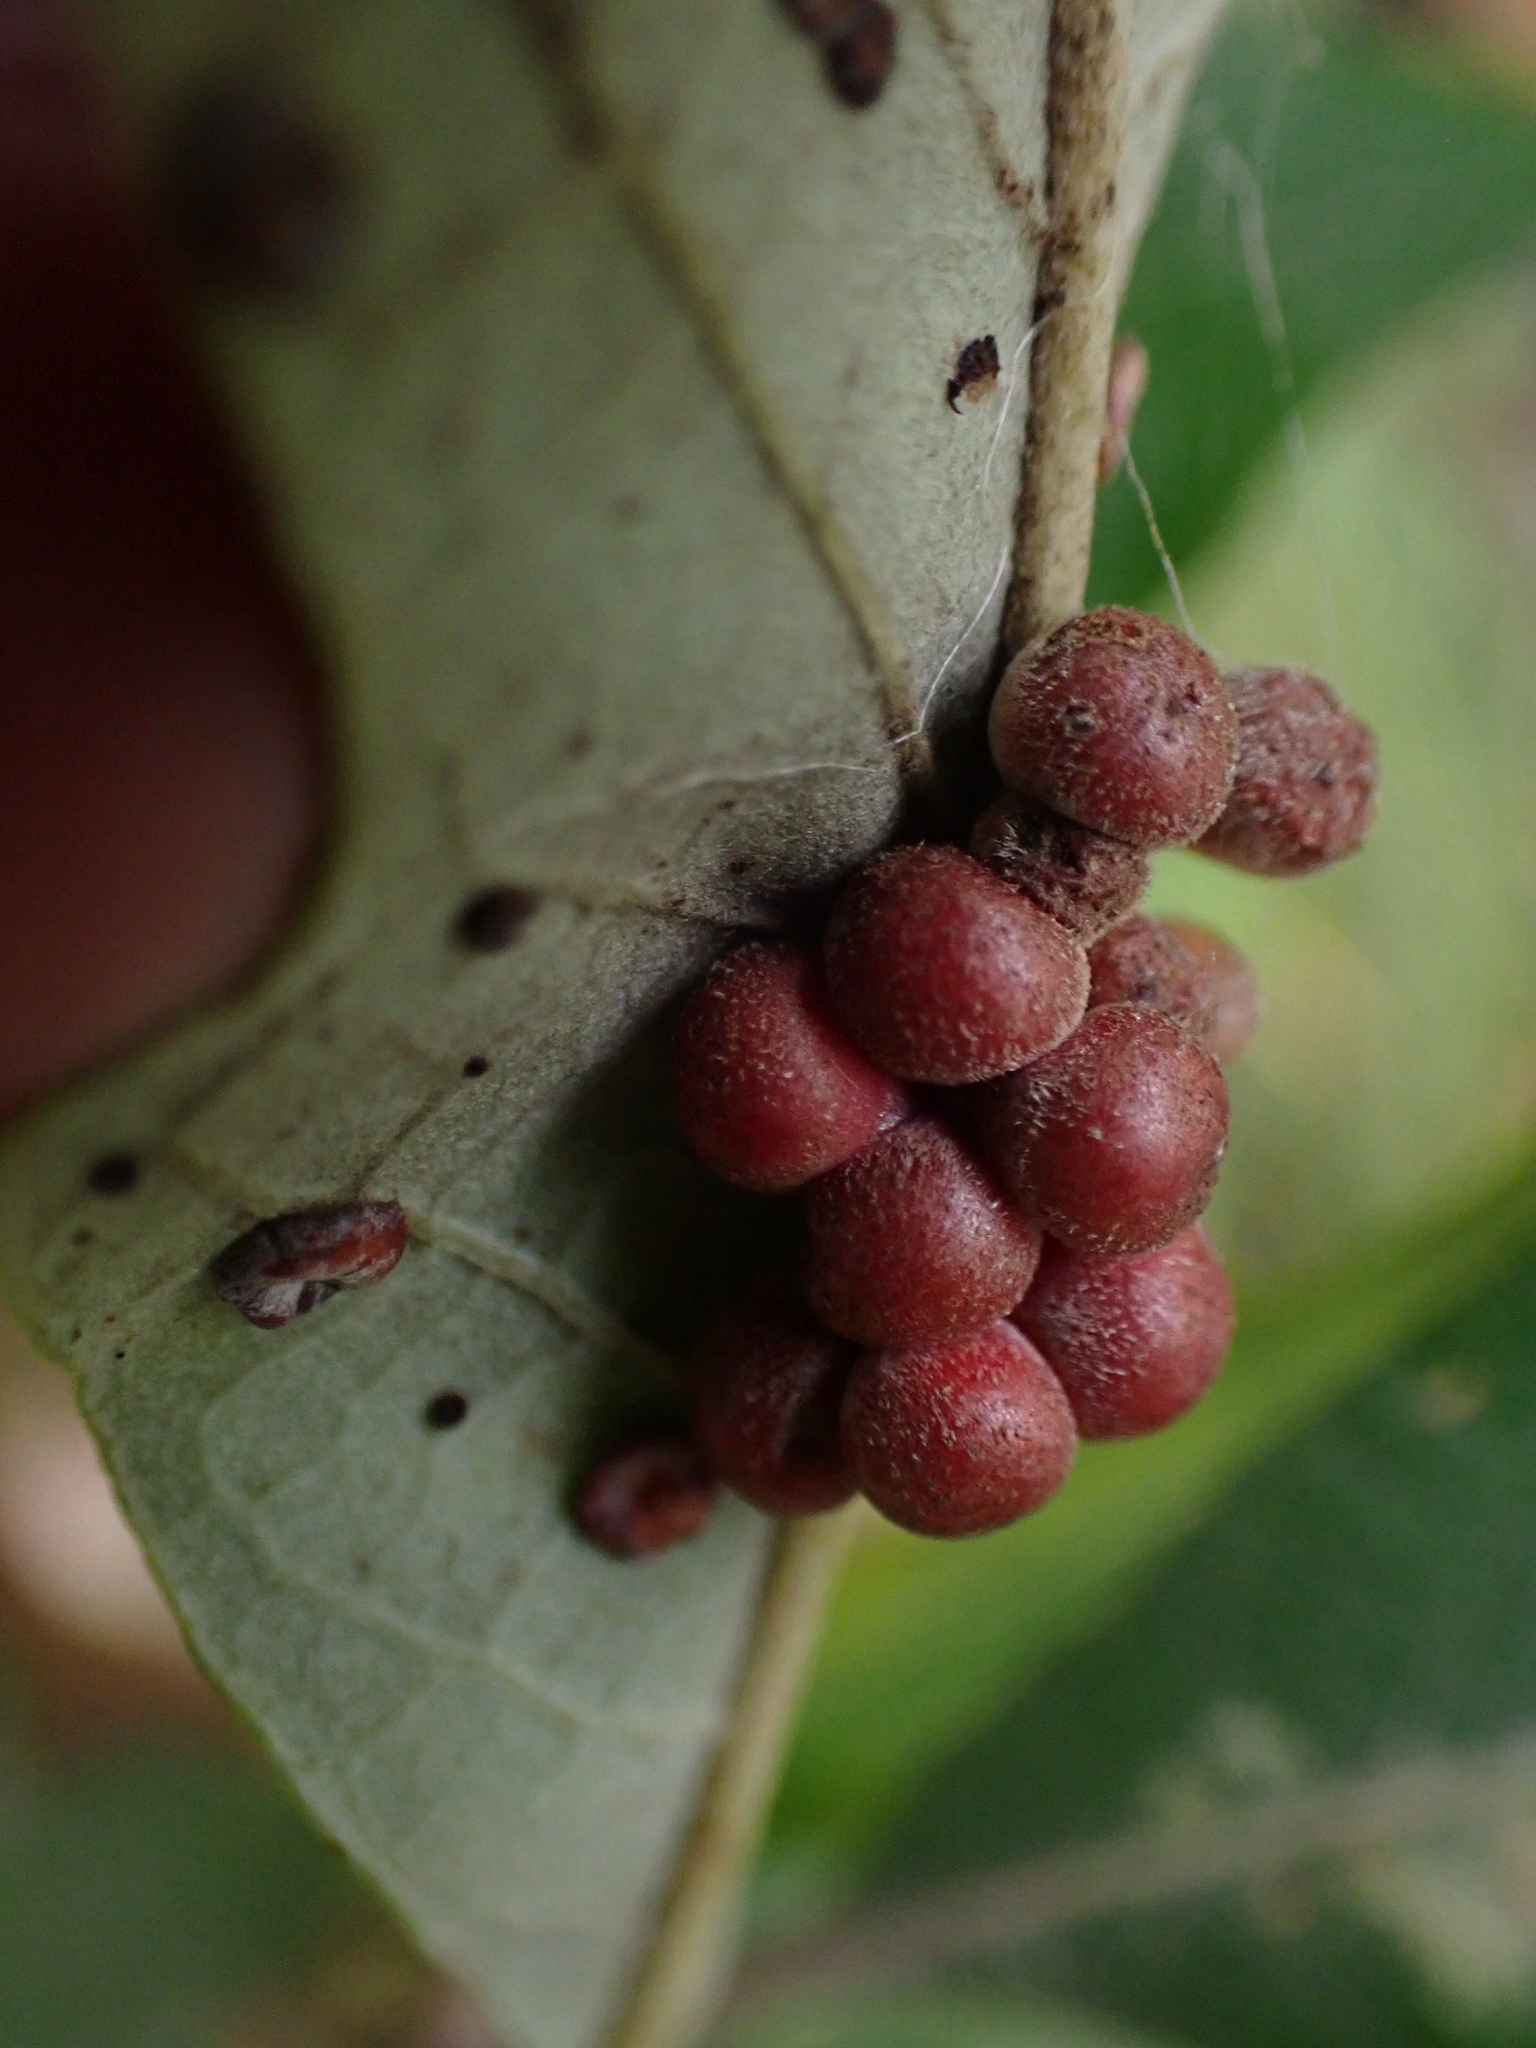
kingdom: Animalia
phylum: Arthropoda
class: Insecta
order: Hymenoptera
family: Cynipidae
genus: Andricus
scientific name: Andricus
